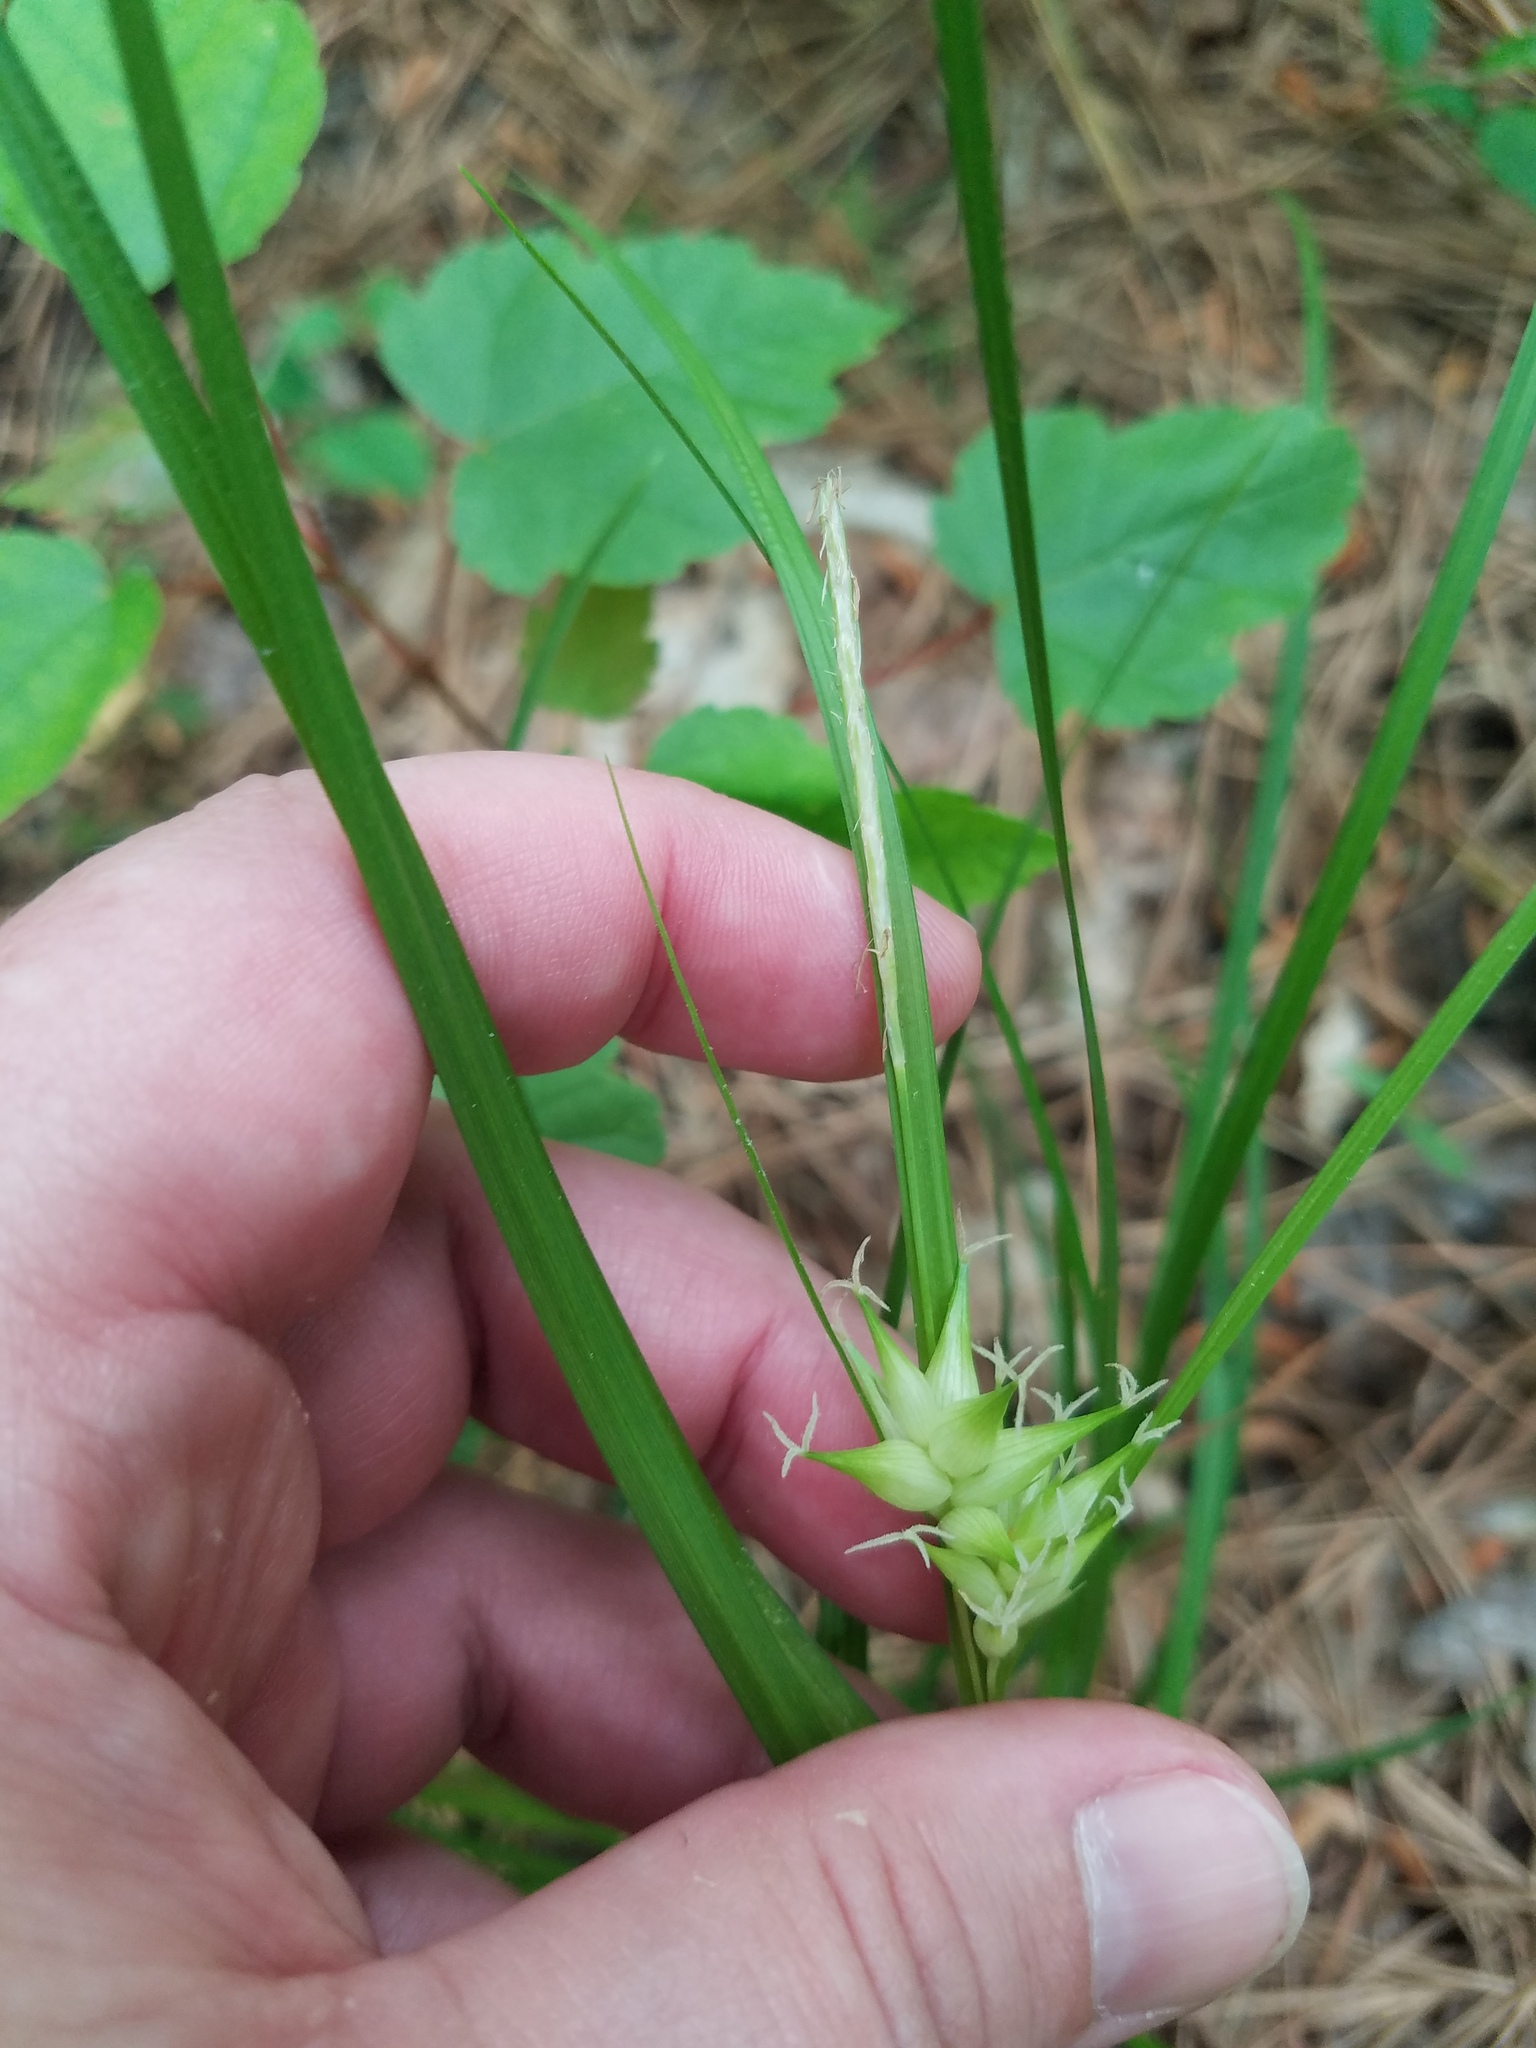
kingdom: Plantae
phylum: Tracheophyta
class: Liliopsida
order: Poales
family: Cyperaceae
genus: Carex
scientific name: Carex intumescens
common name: Greater bladder sedge
